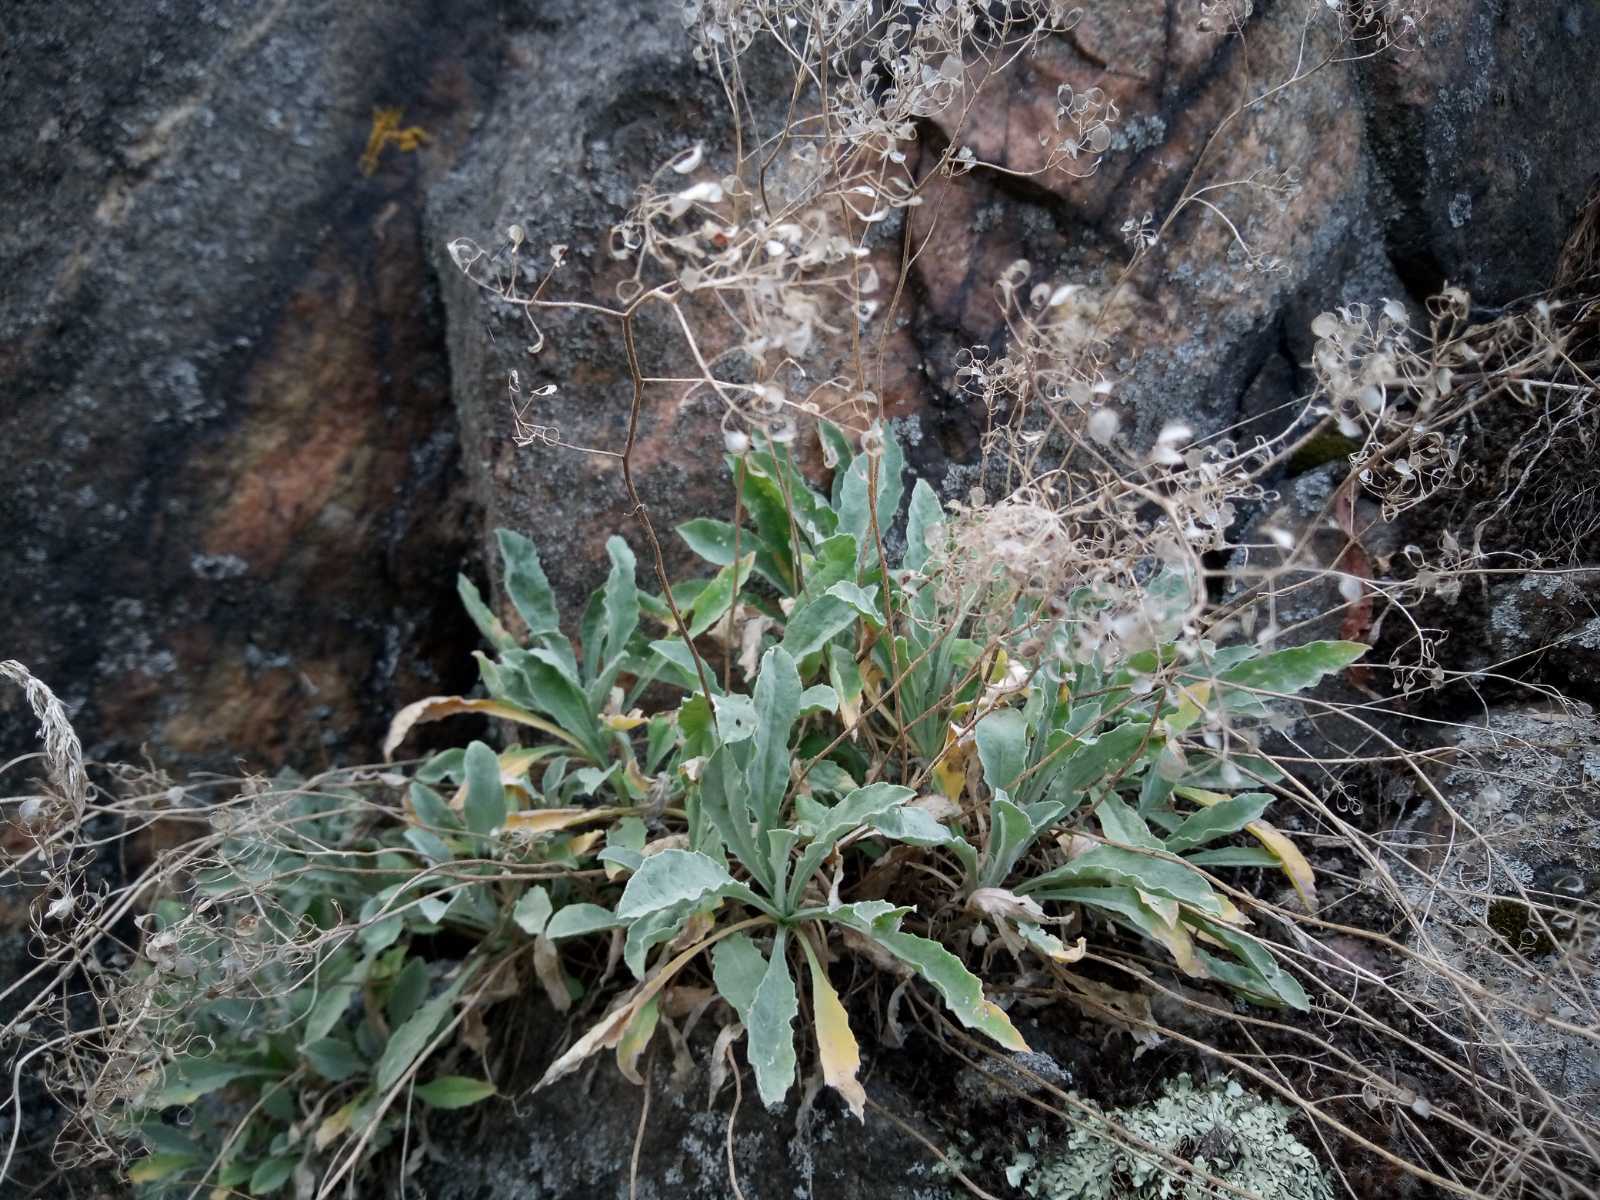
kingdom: Plantae
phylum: Tracheophyta
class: Magnoliopsida
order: Brassicales
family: Brassicaceae
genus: Aurinia
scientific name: Aurinia saxatilis
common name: Golden-tuft alyssum
